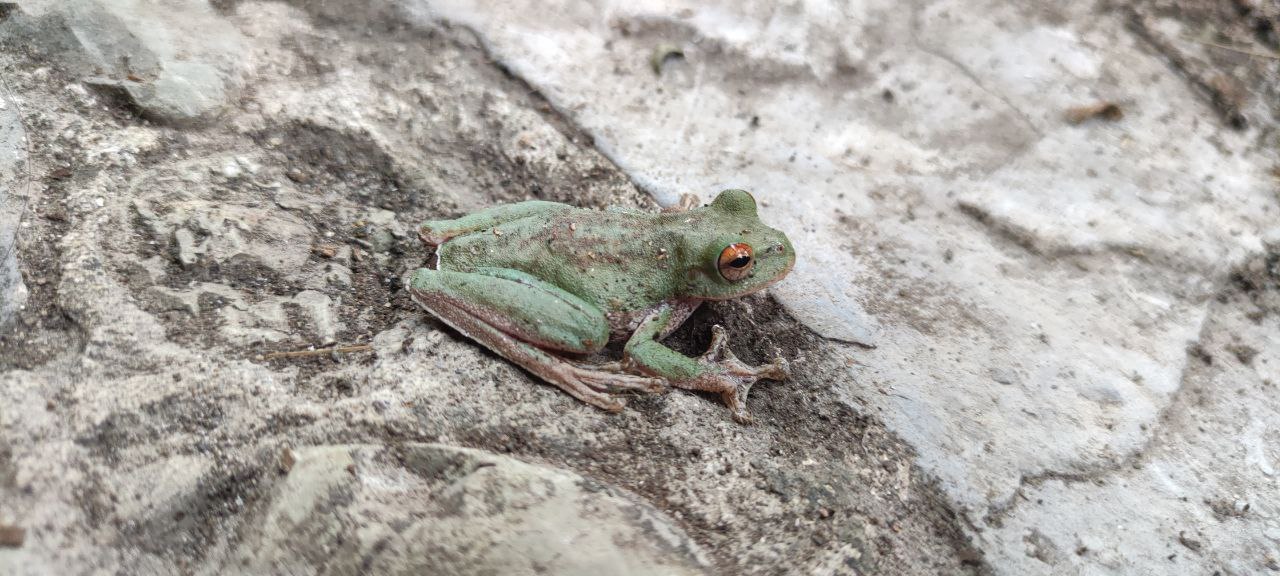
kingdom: Animalia
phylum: Chordata
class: Amphibia
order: Anura
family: Hylidae
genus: Rheohyla
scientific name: Rheohyla miotympanum
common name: Small-eard hyla
